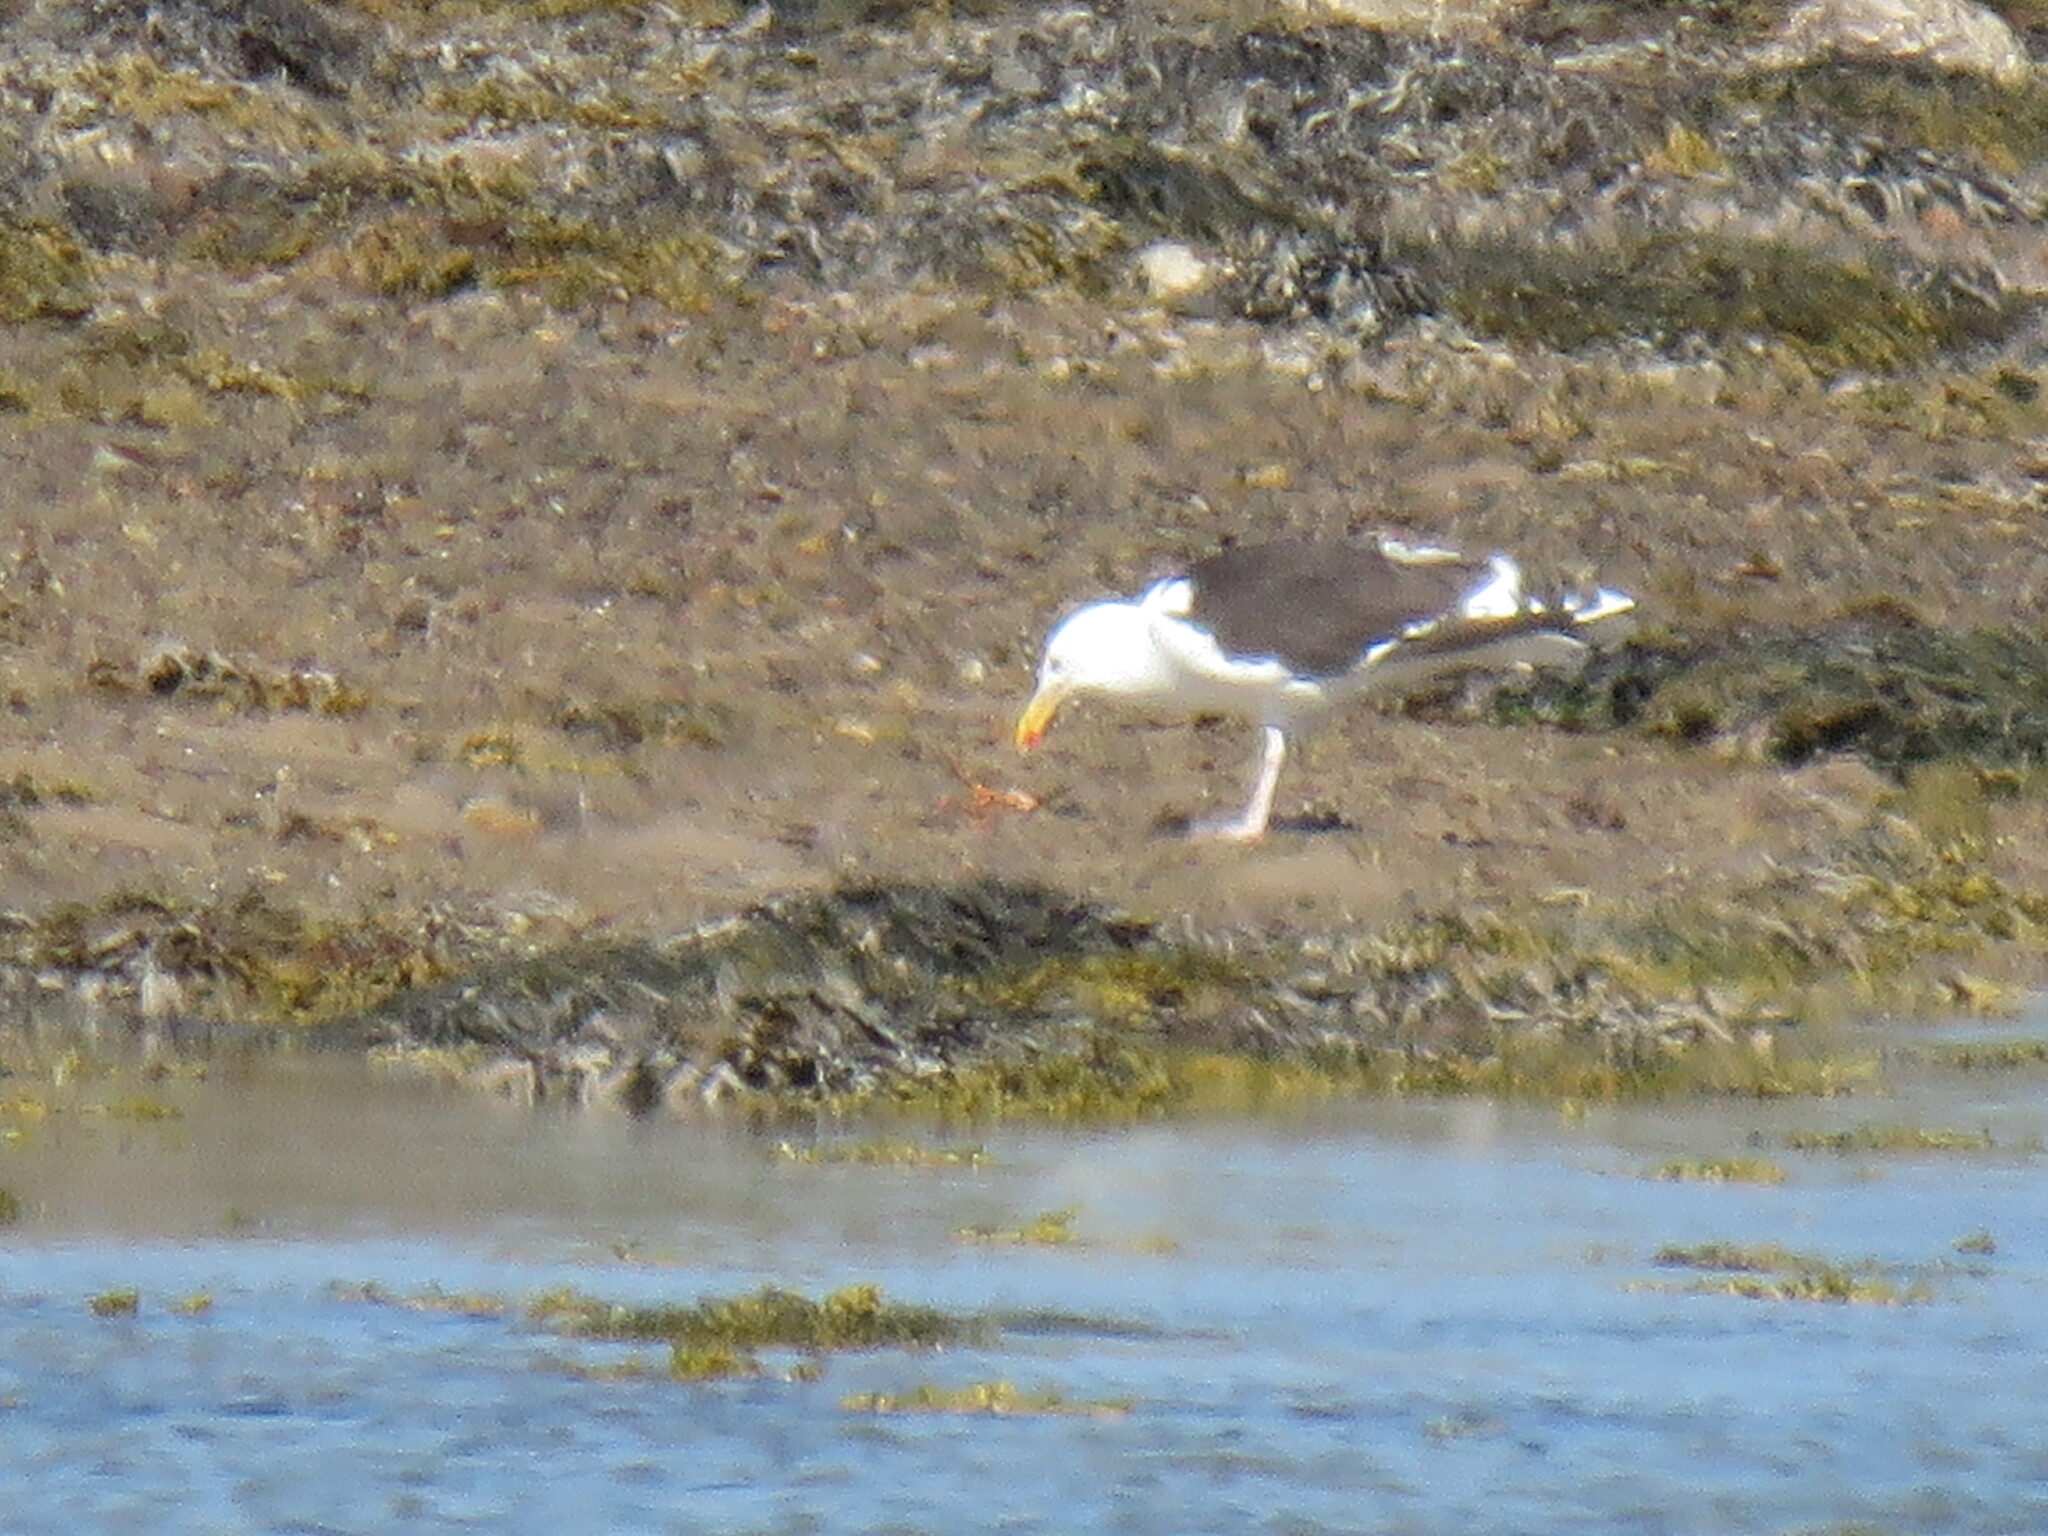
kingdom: Animalia
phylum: Chordata
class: Aves
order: Charadriiformes
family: Laridae
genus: Larus
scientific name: Larus marinus
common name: Great black-backed gull
